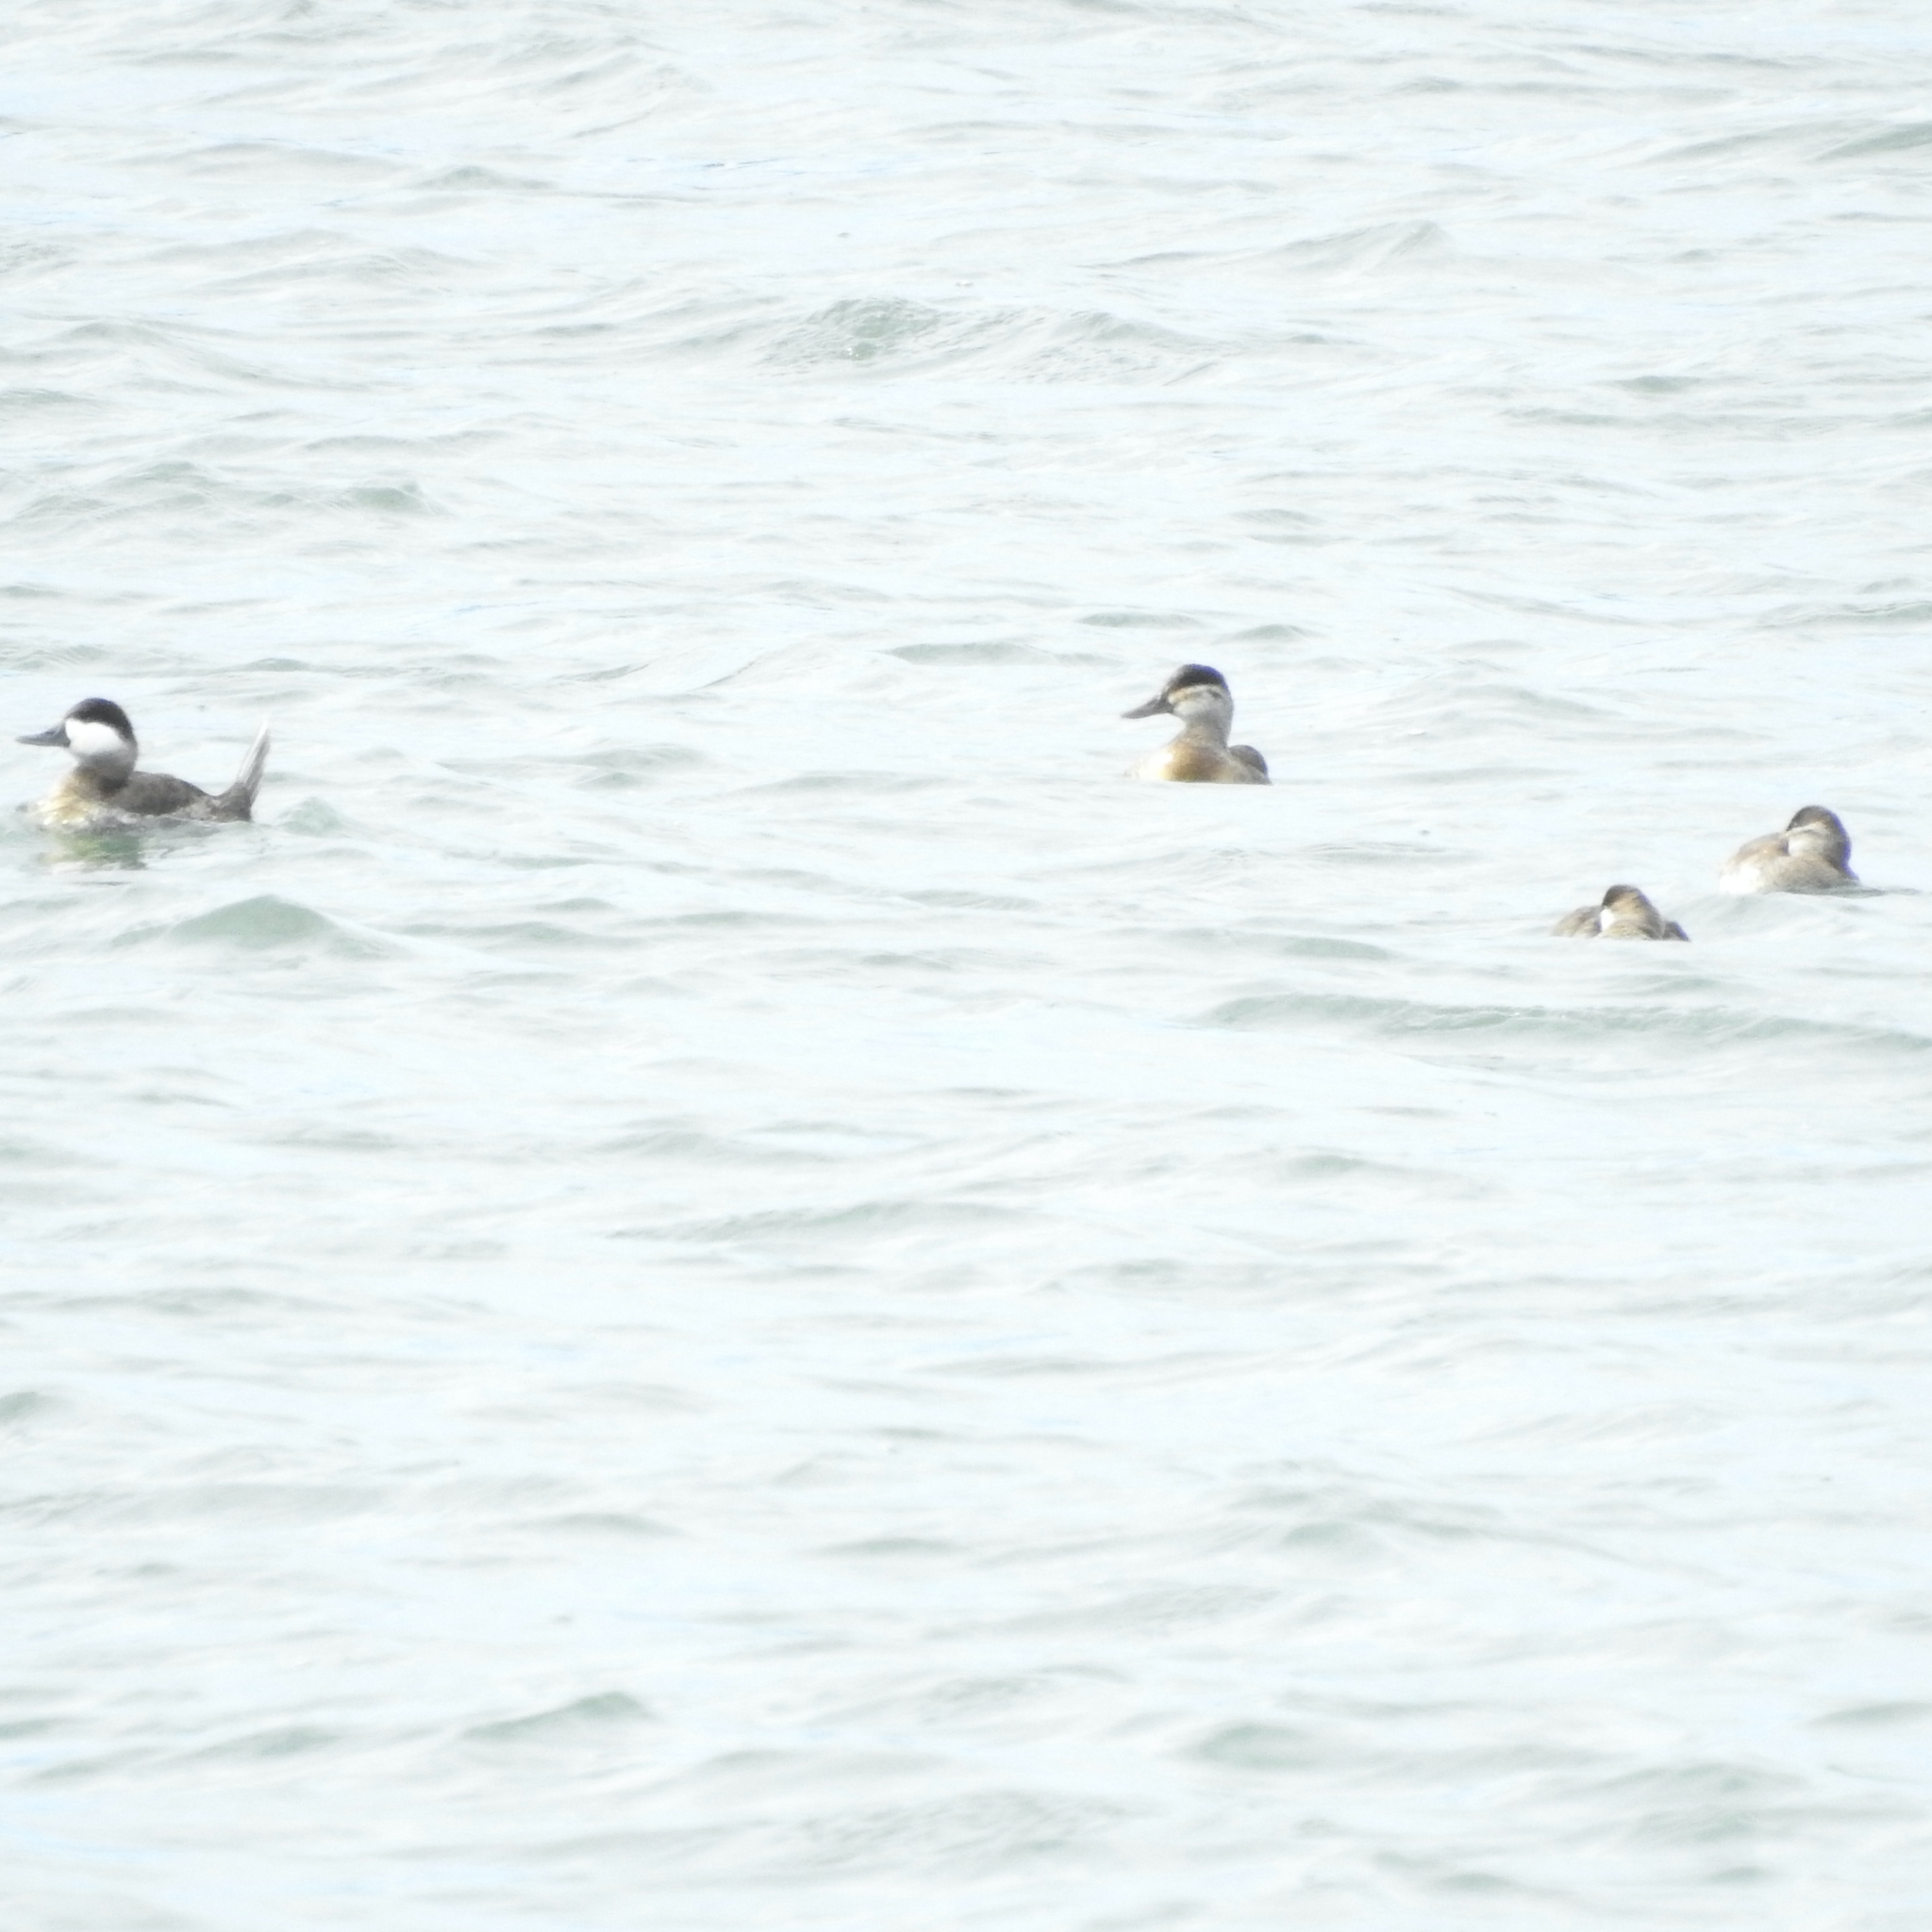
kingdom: Animalia
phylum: Chordata
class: Aves
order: Anseriformes
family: Anatidae
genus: Oxyura
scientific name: Oxyura jamaicensis
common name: Ruddy duck
